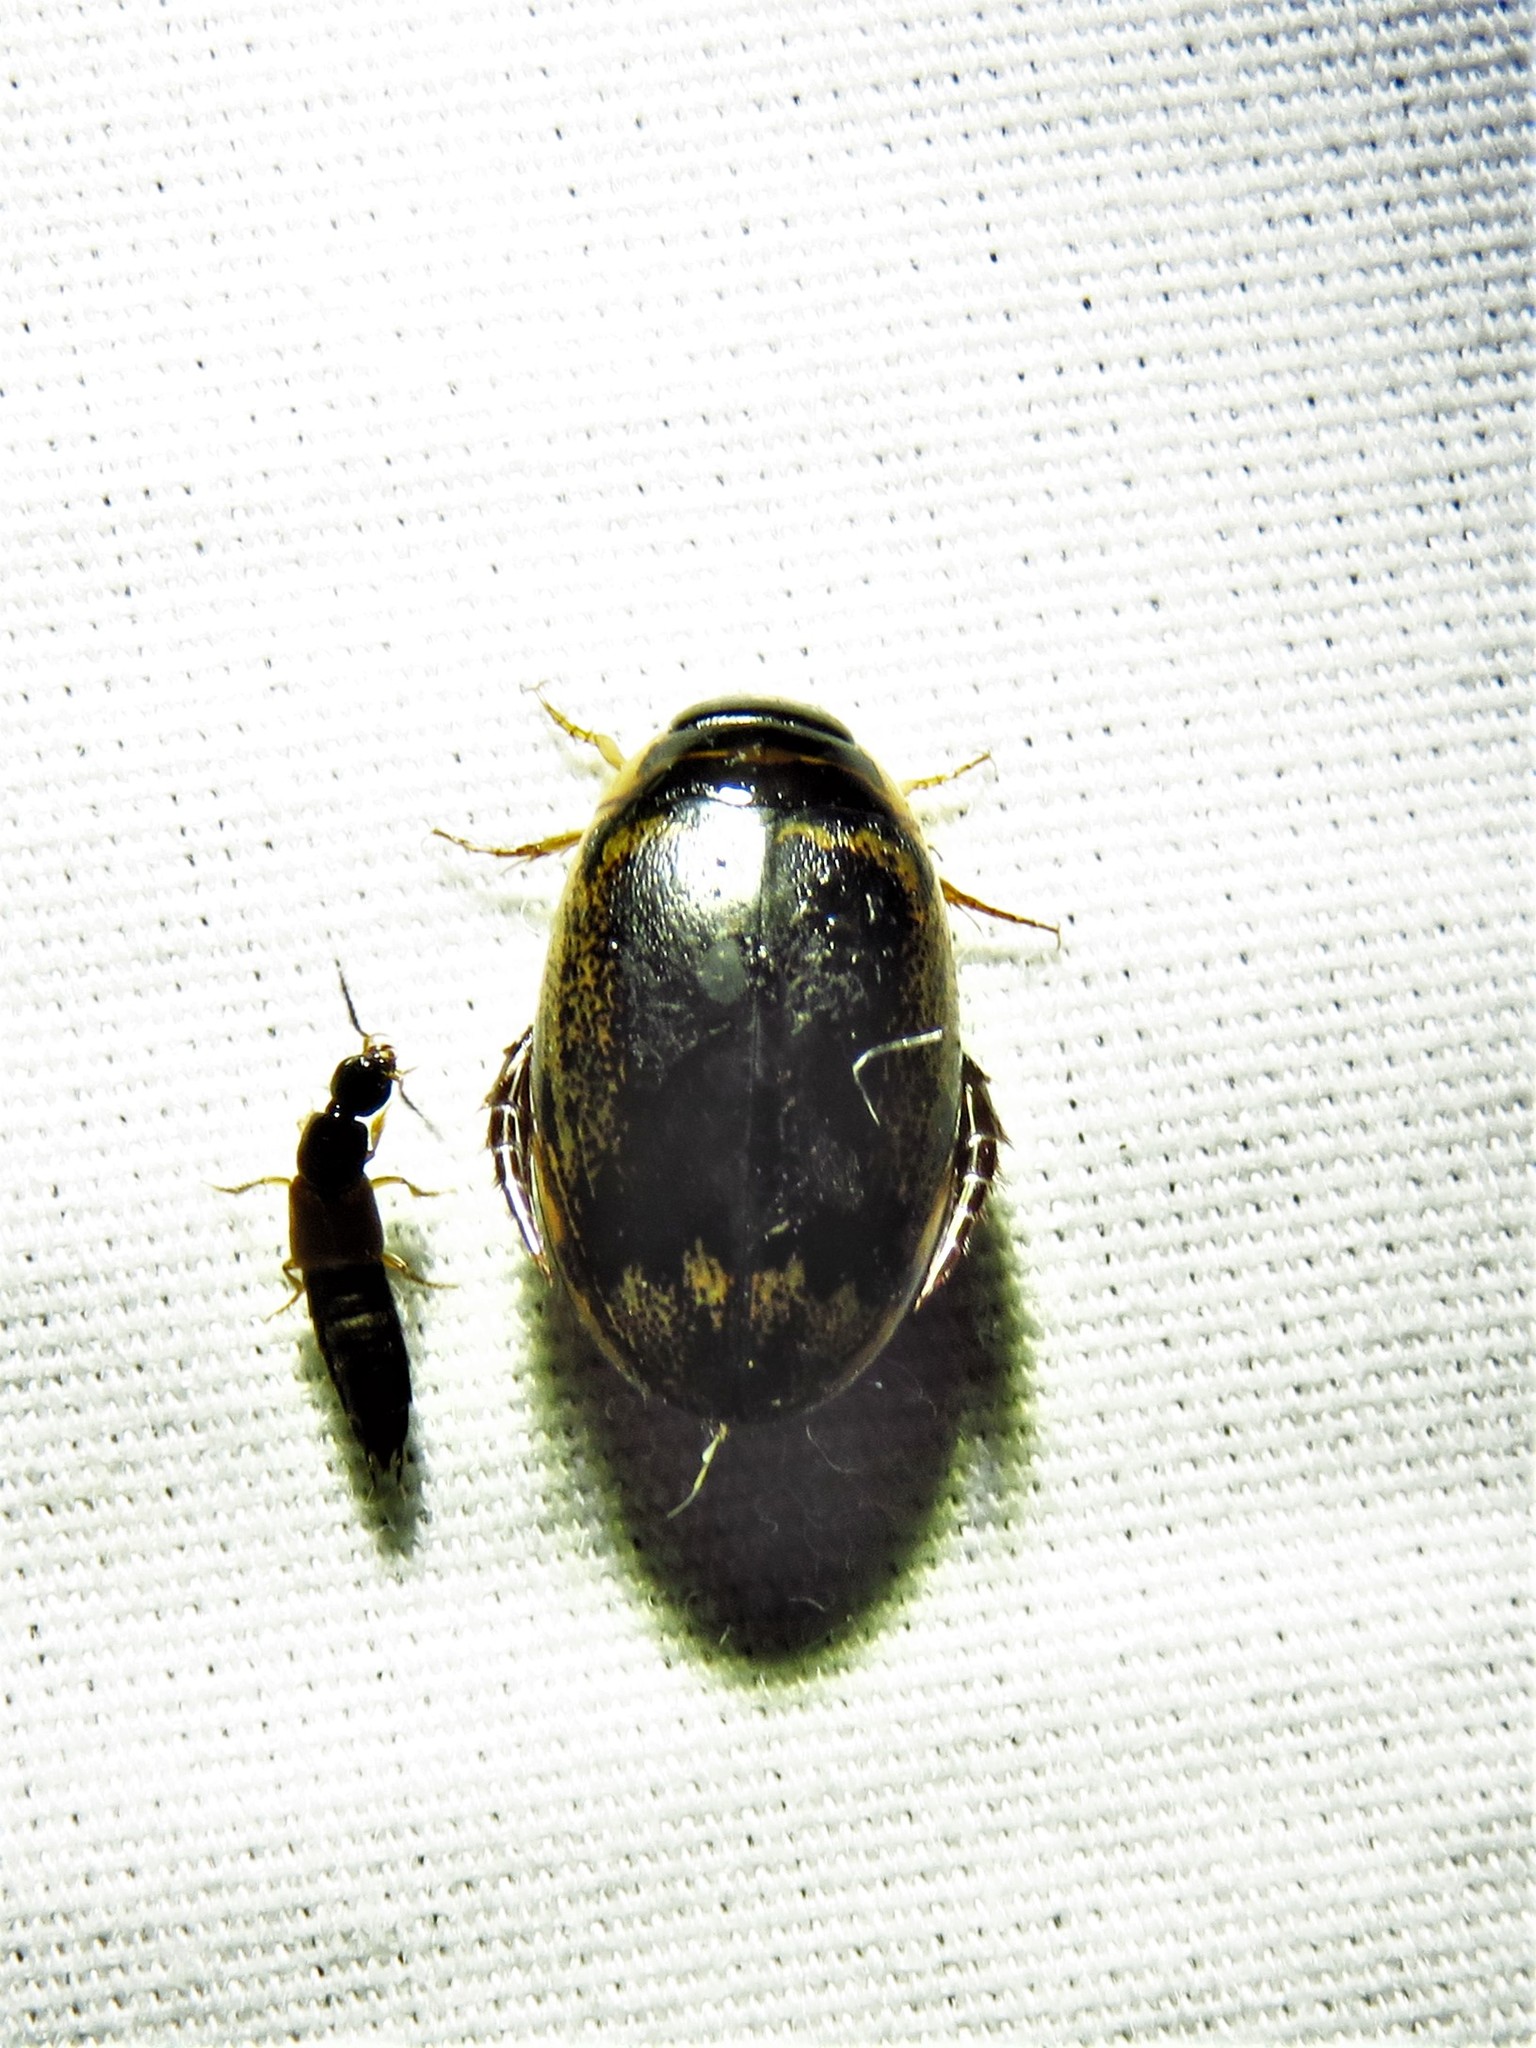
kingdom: Animalia
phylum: Arthropoda
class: Insecta
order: Coleoptera
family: Dytiscidae
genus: Thermonectus
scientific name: Thermonectus basillaris
